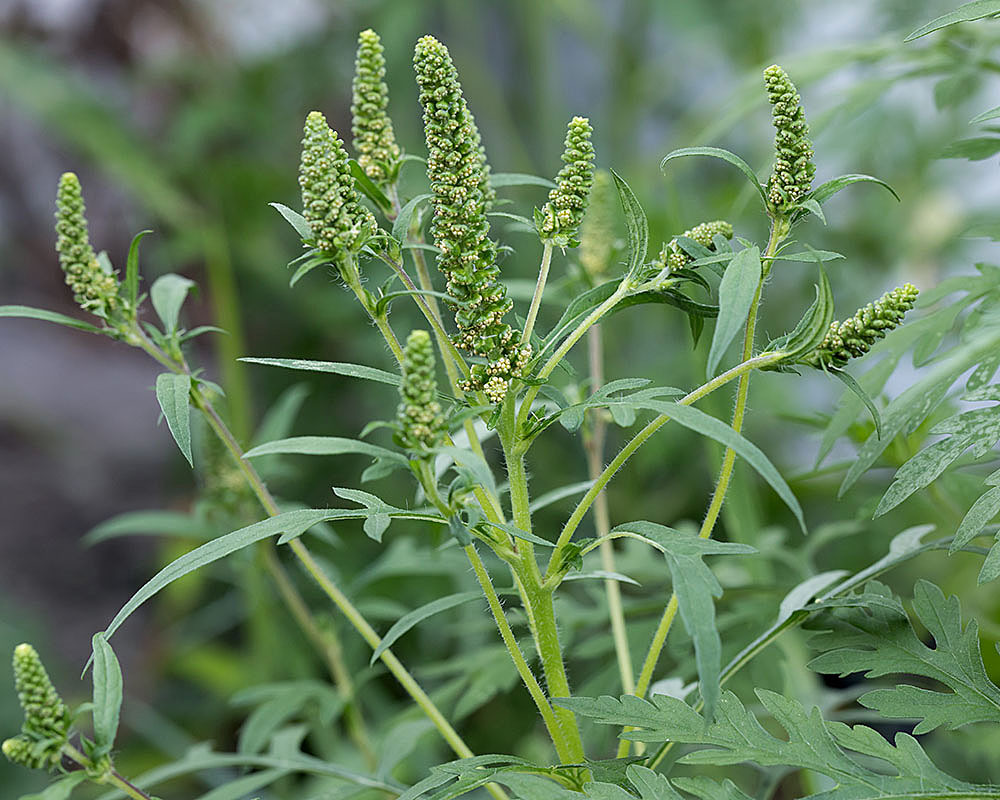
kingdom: Plantae
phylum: Tracheophyta
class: Magnoliopsida
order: Asterales
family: Asteraceae
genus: Ambrosia
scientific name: Ambrosia artemisiifolia
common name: Annual ragweed
